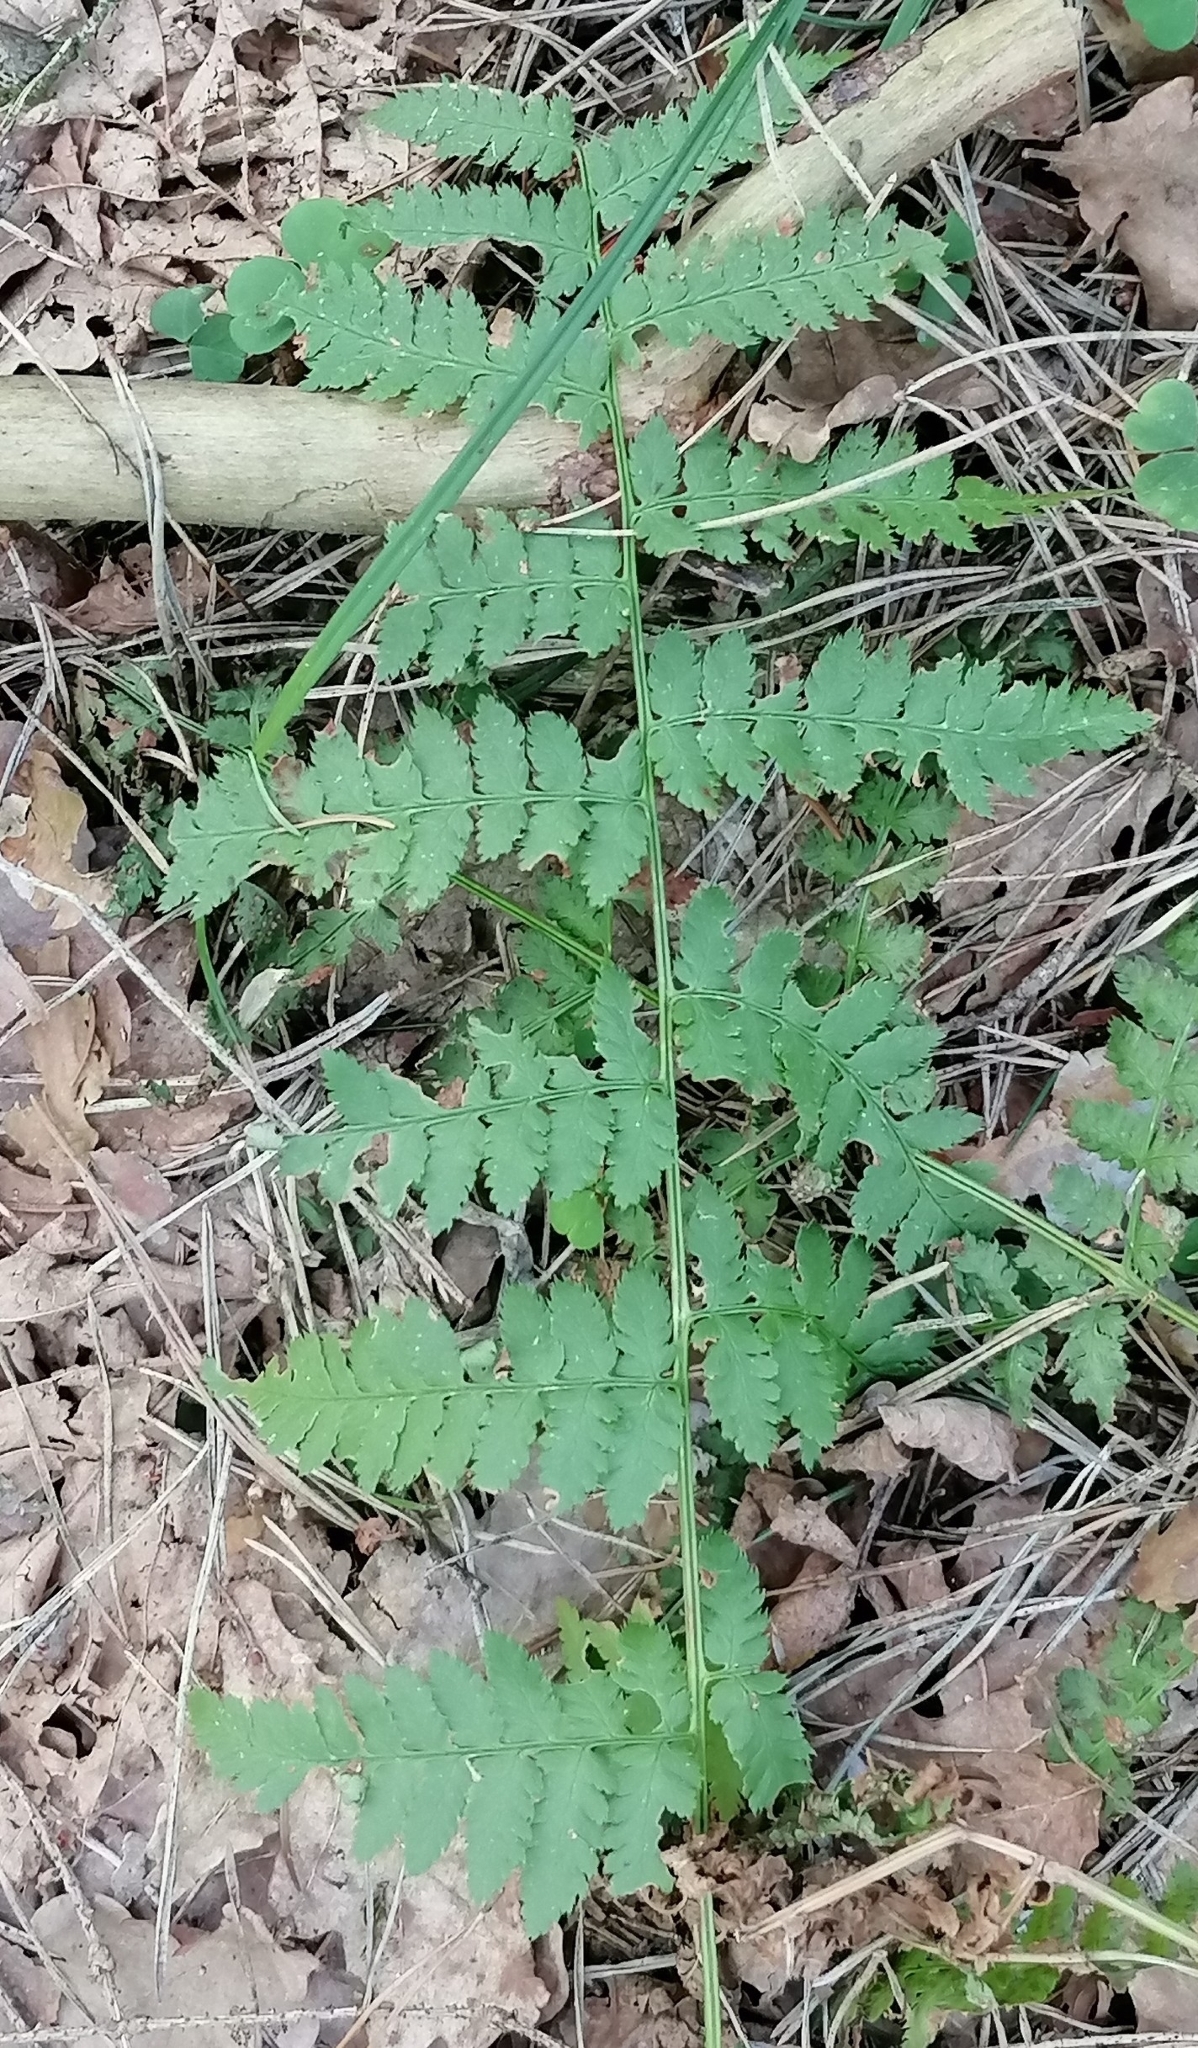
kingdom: Plantae
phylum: Tracheophyta
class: Polypodiopsida
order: Polypodiales
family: Dryopteridaceae
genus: Dryopteris
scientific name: Dryopteris carthusiana
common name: Narrow buckler-fern
